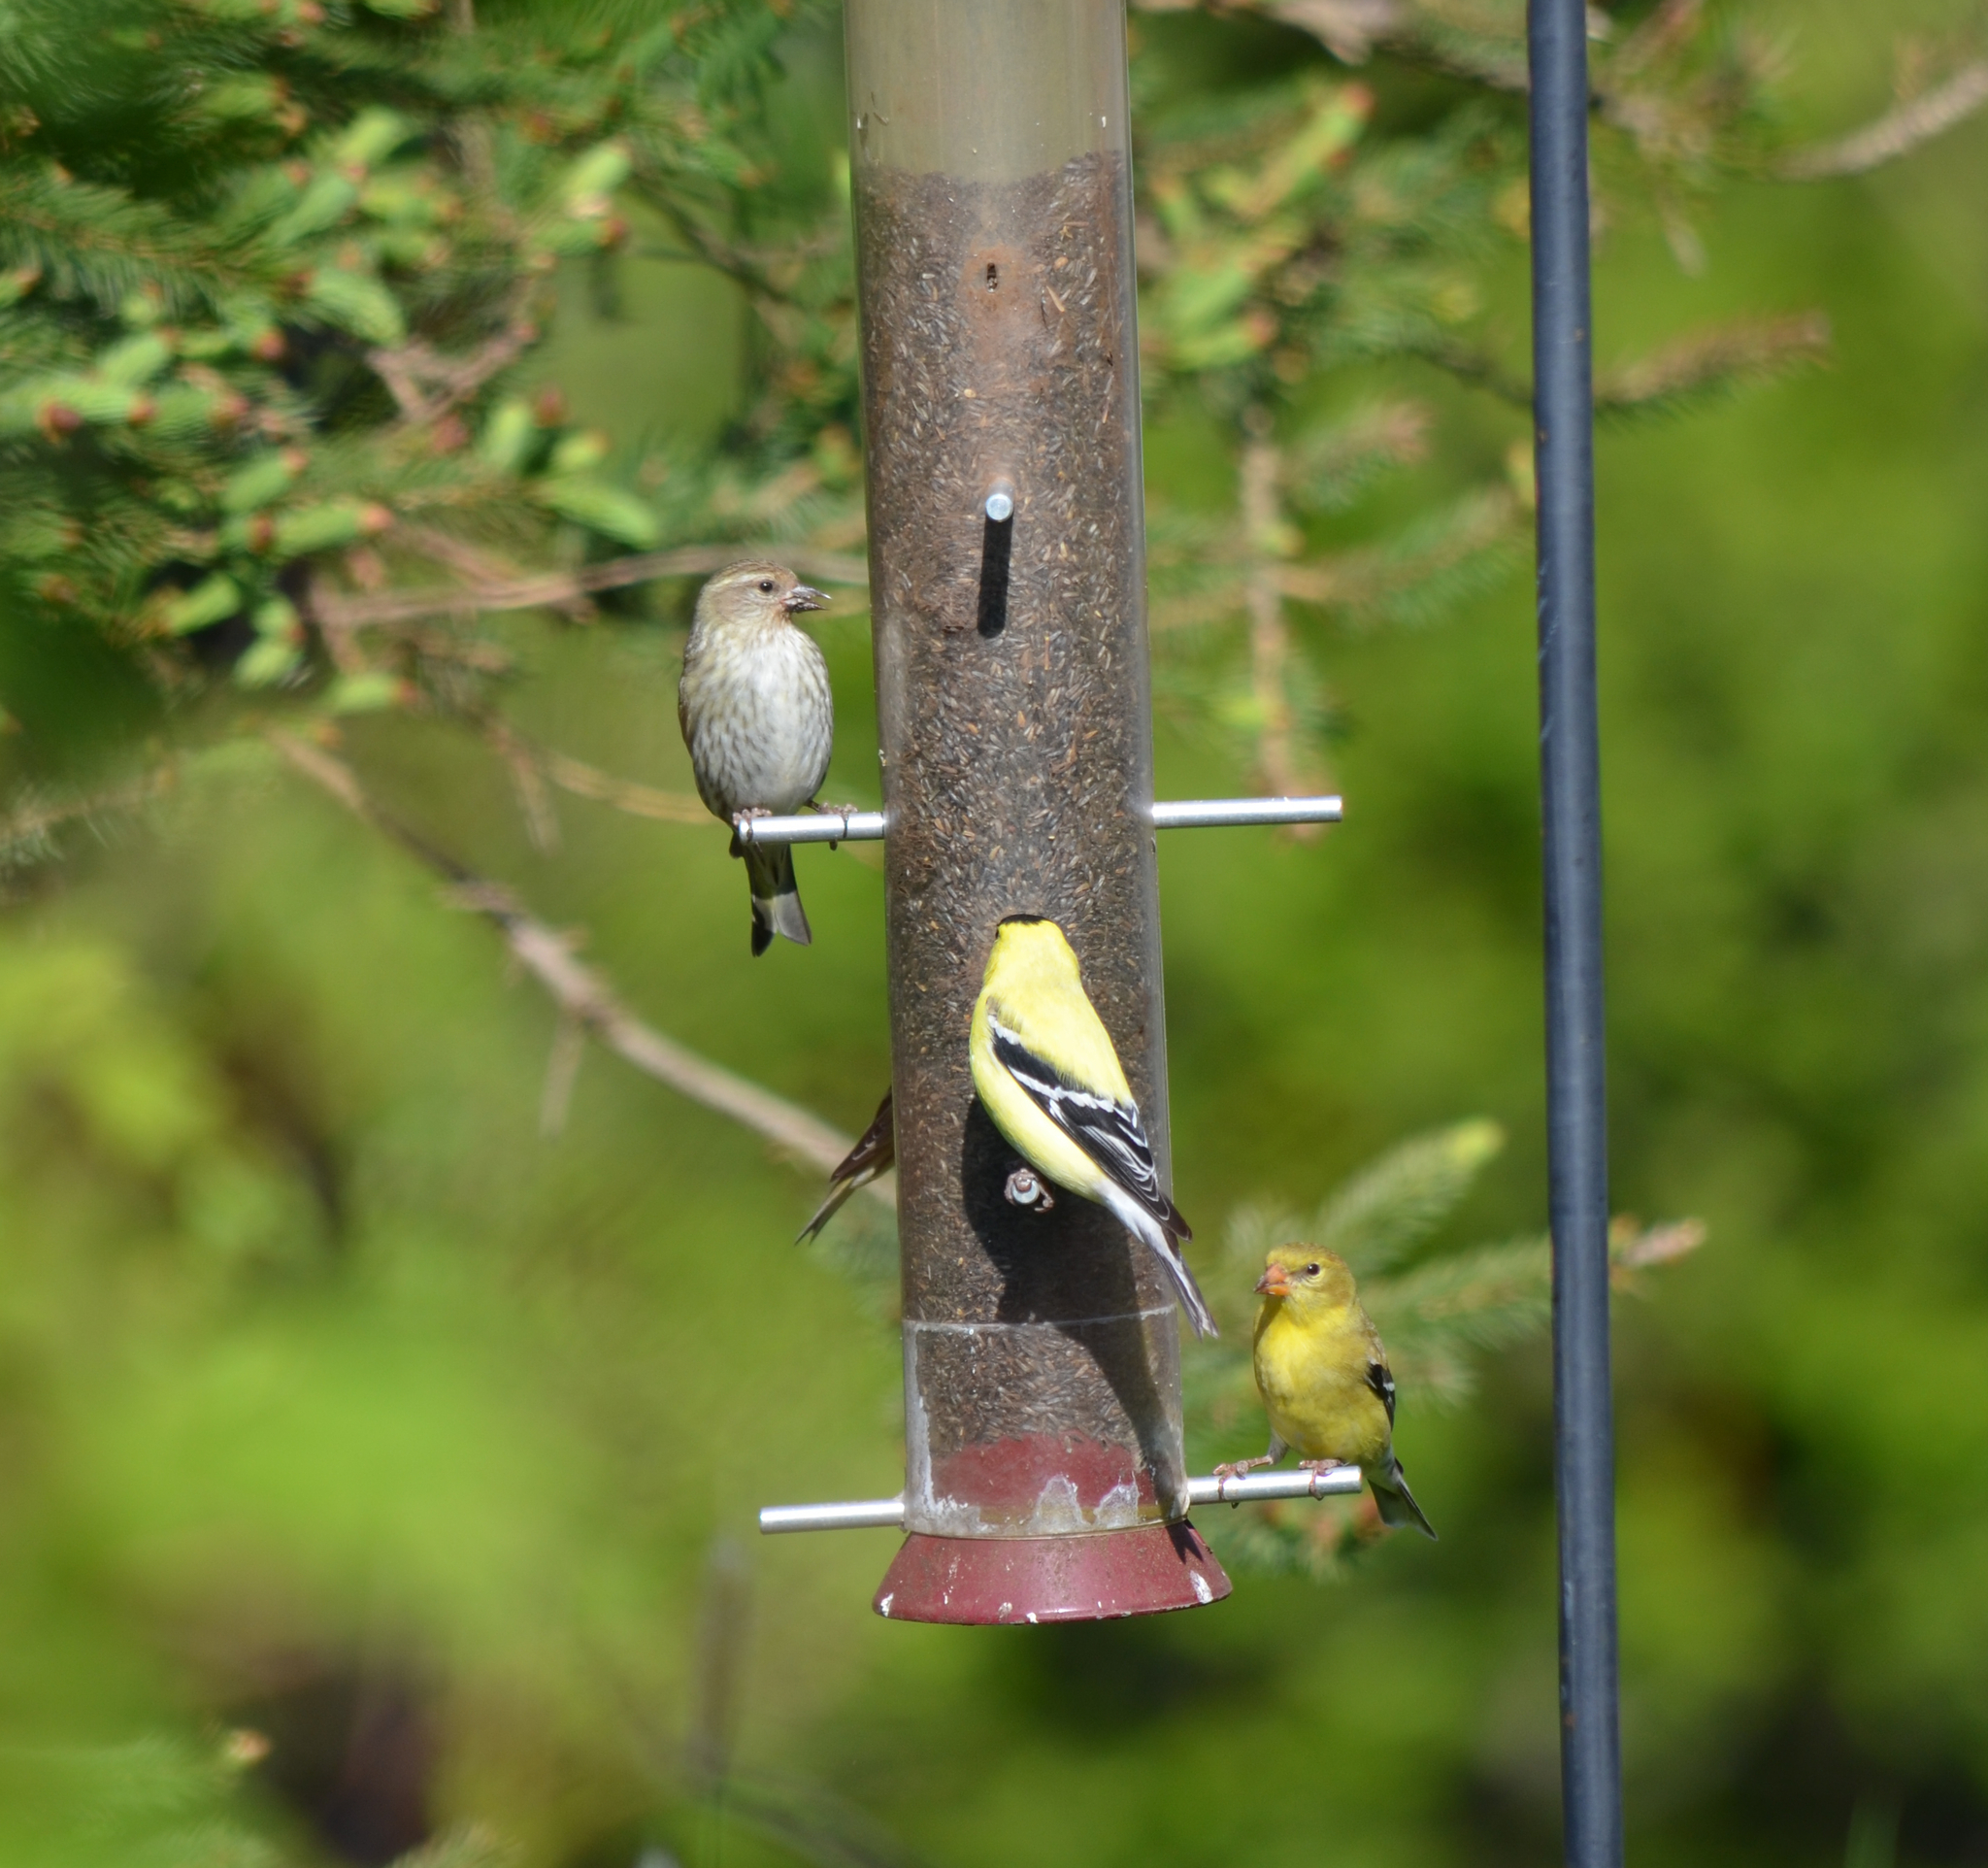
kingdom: Animalia
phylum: Chordata
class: Aves
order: Passeriformes
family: Fringillidae
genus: Spinus
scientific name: Spinus tristis
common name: American goldfinch
